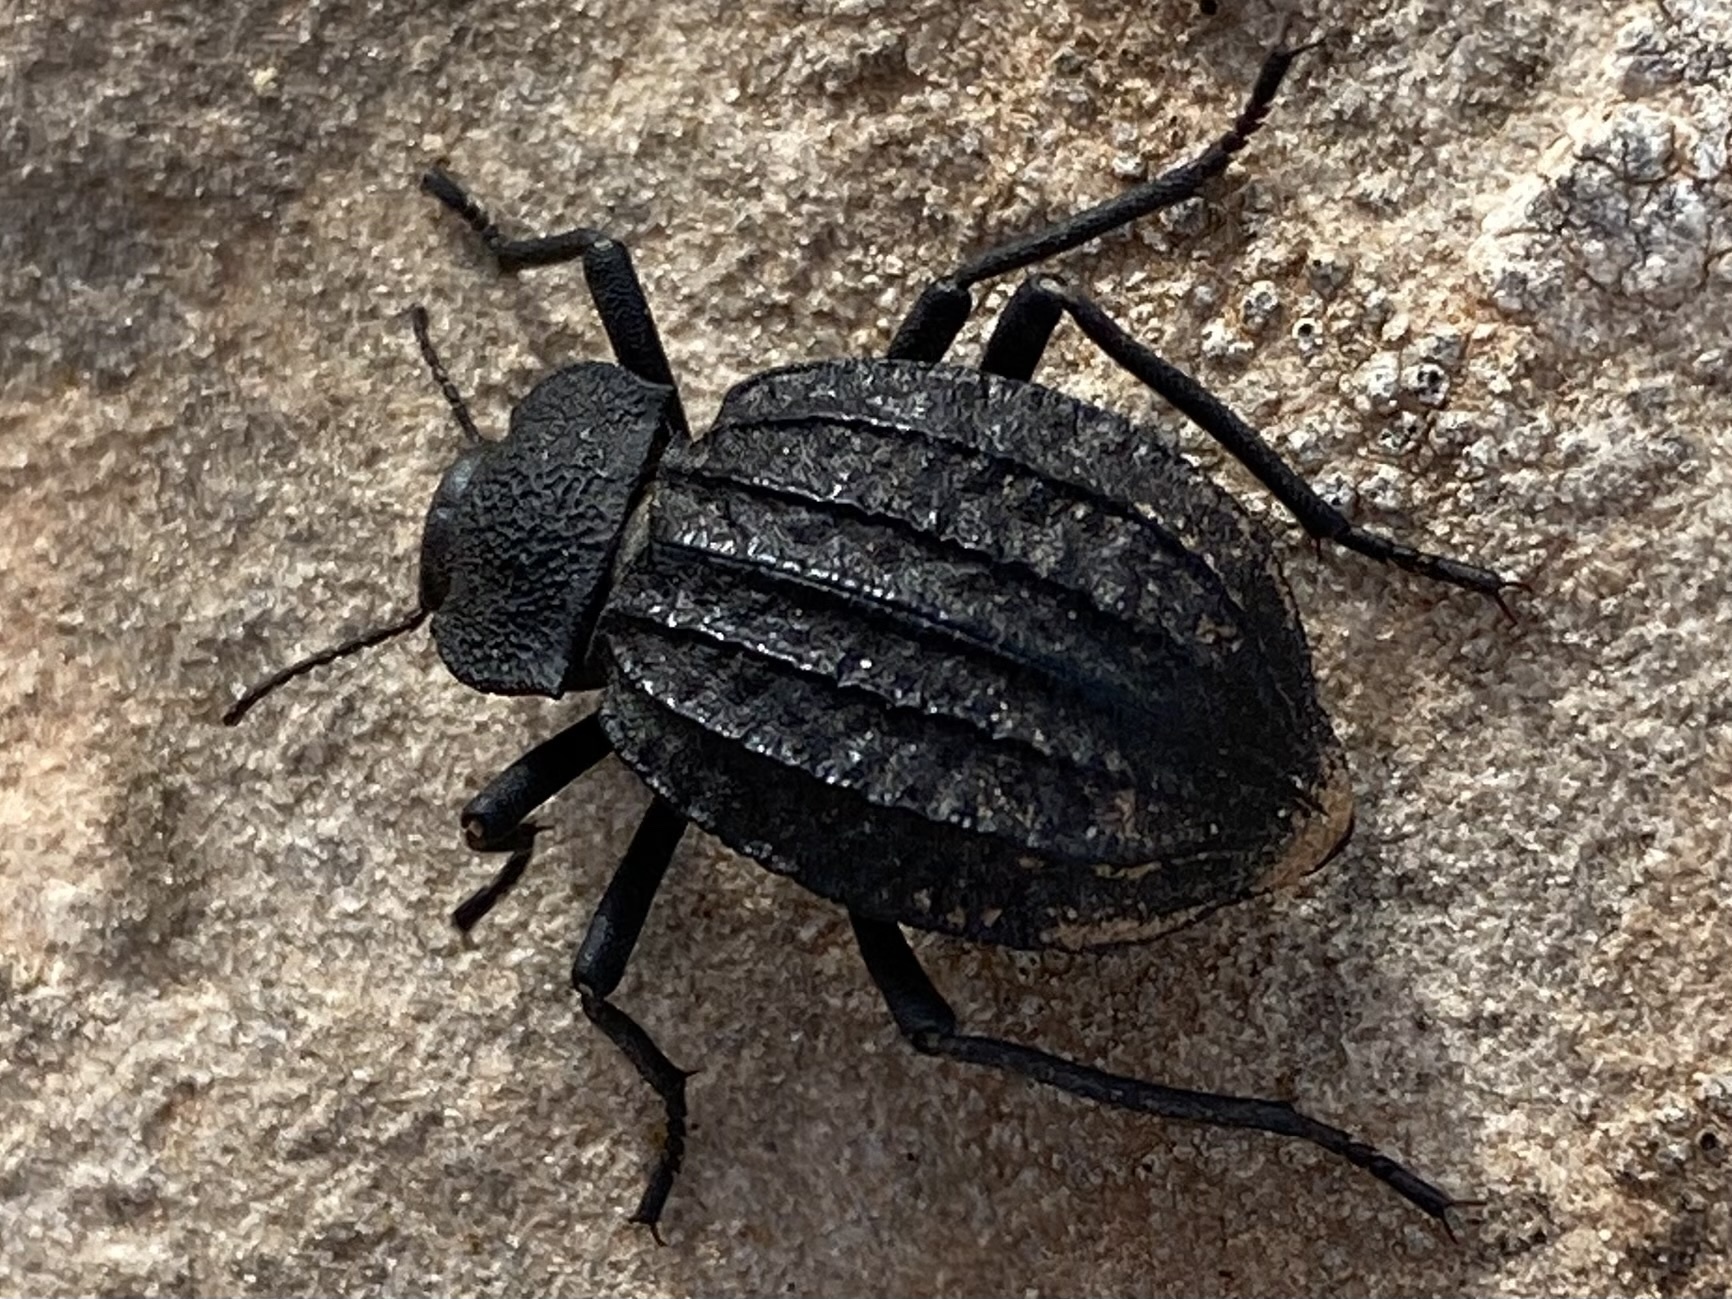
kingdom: Animalia
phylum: Arthropoda
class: Insecta
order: Coleoptera
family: Tenebrionidae
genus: Philolithus
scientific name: Philolithus sordidus
